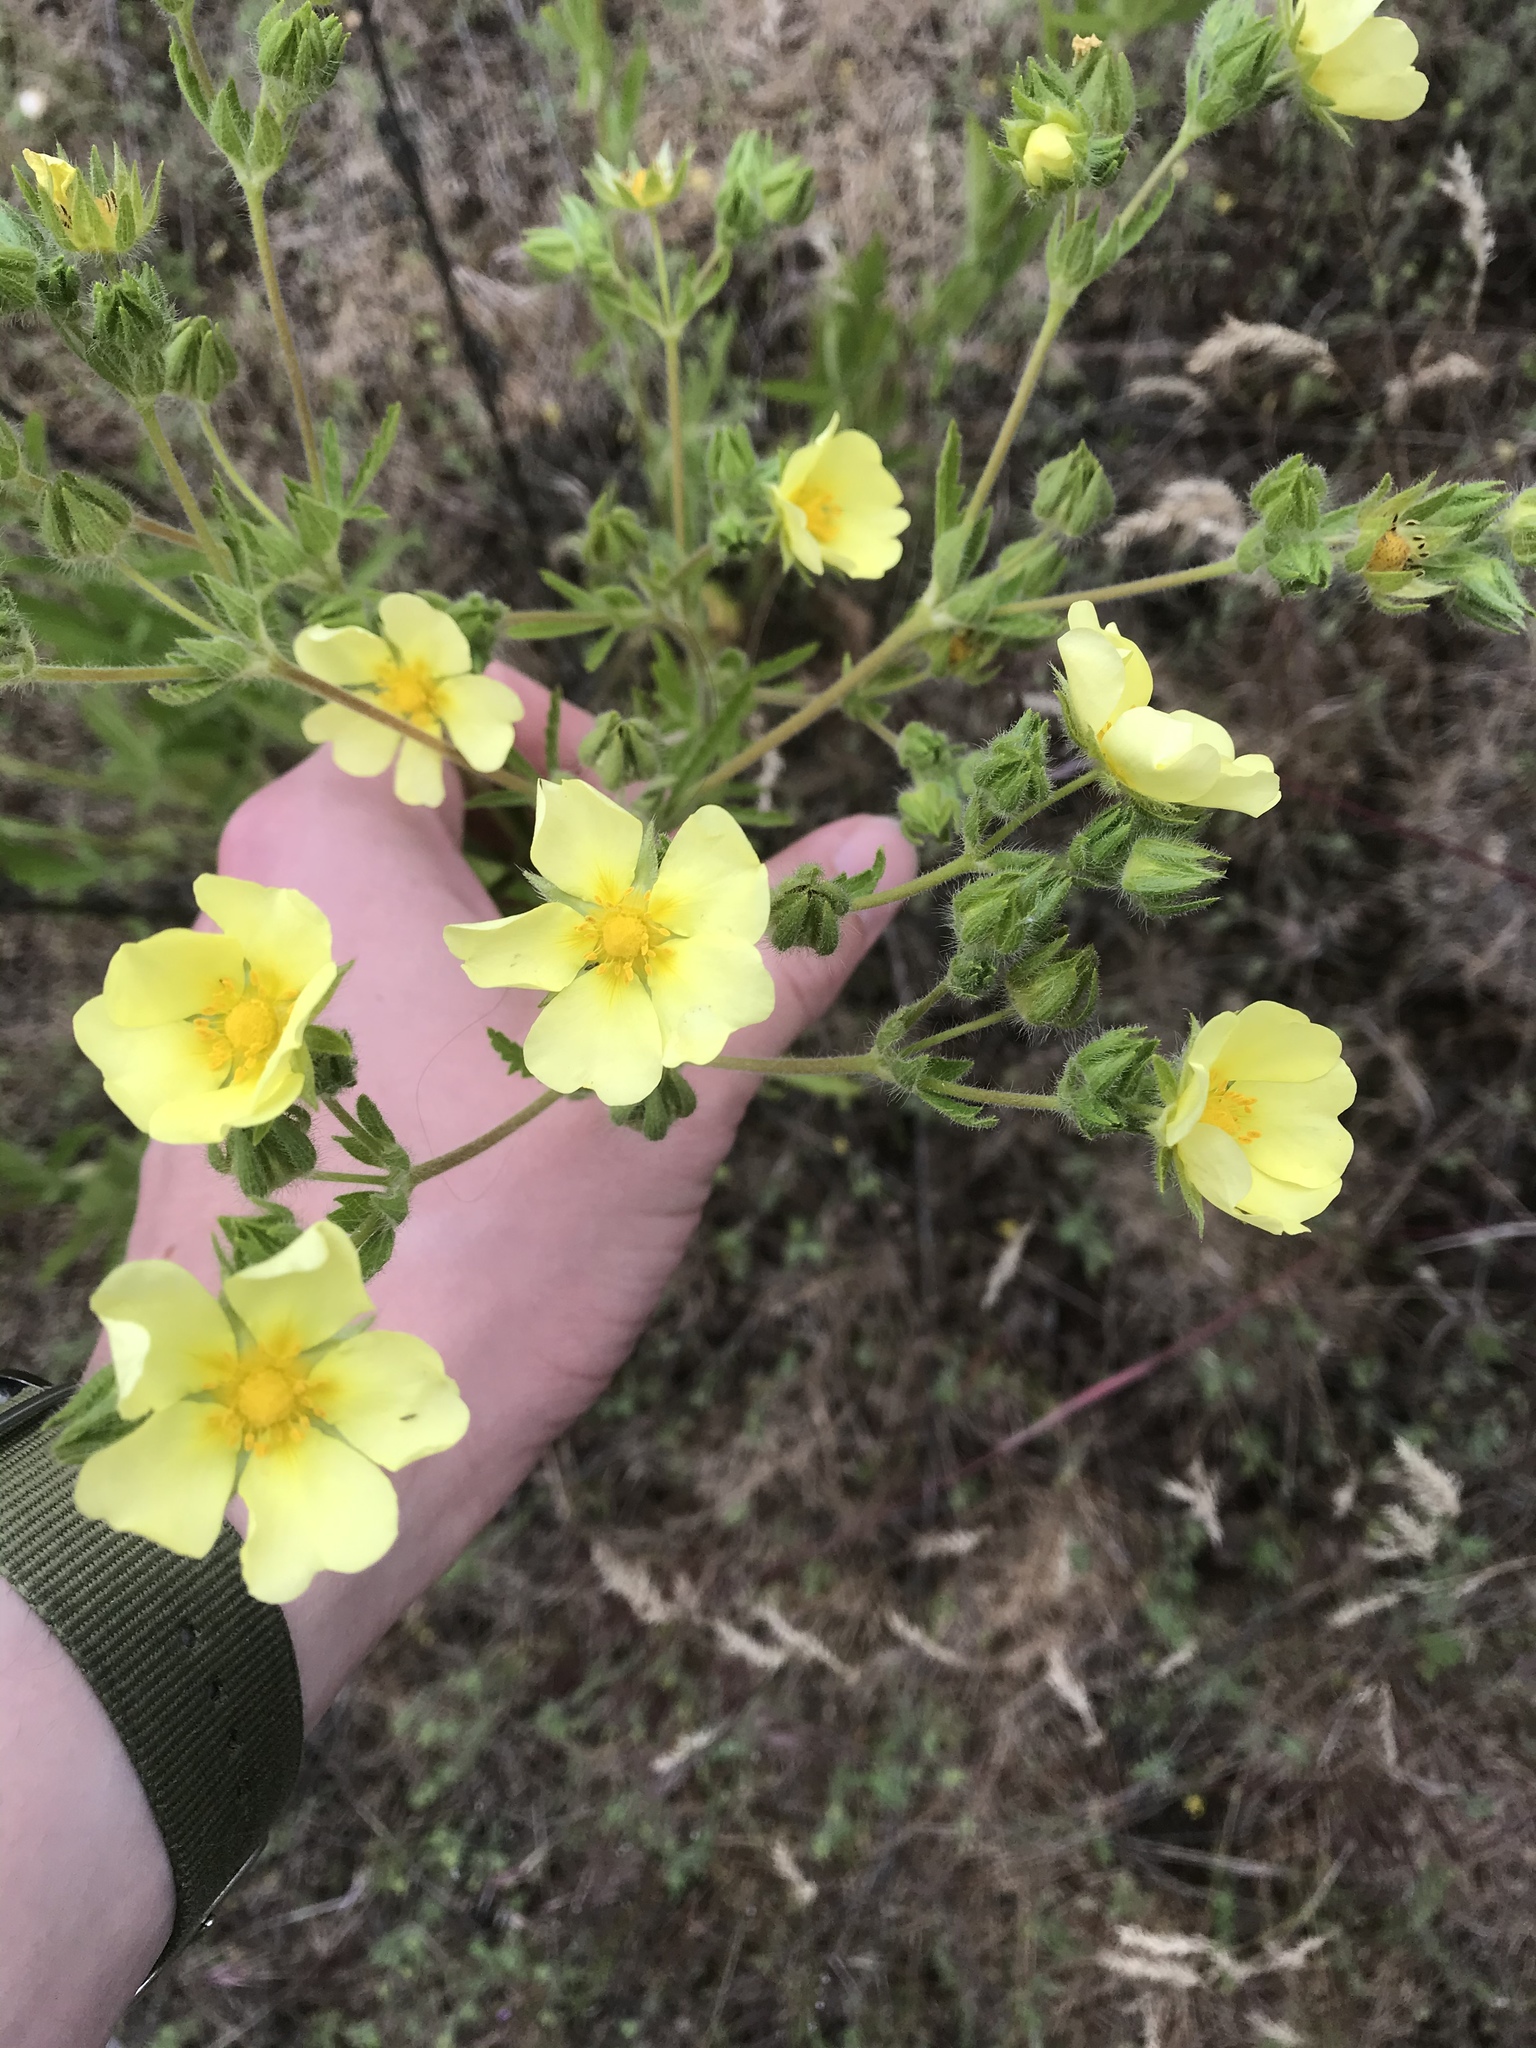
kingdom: Plantae
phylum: Tracheophyta
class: Magnoliopsida
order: Rosales
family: Rosaceae
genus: Potentilla
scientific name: Potentilla recta
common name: Sulphur cinquefoil
